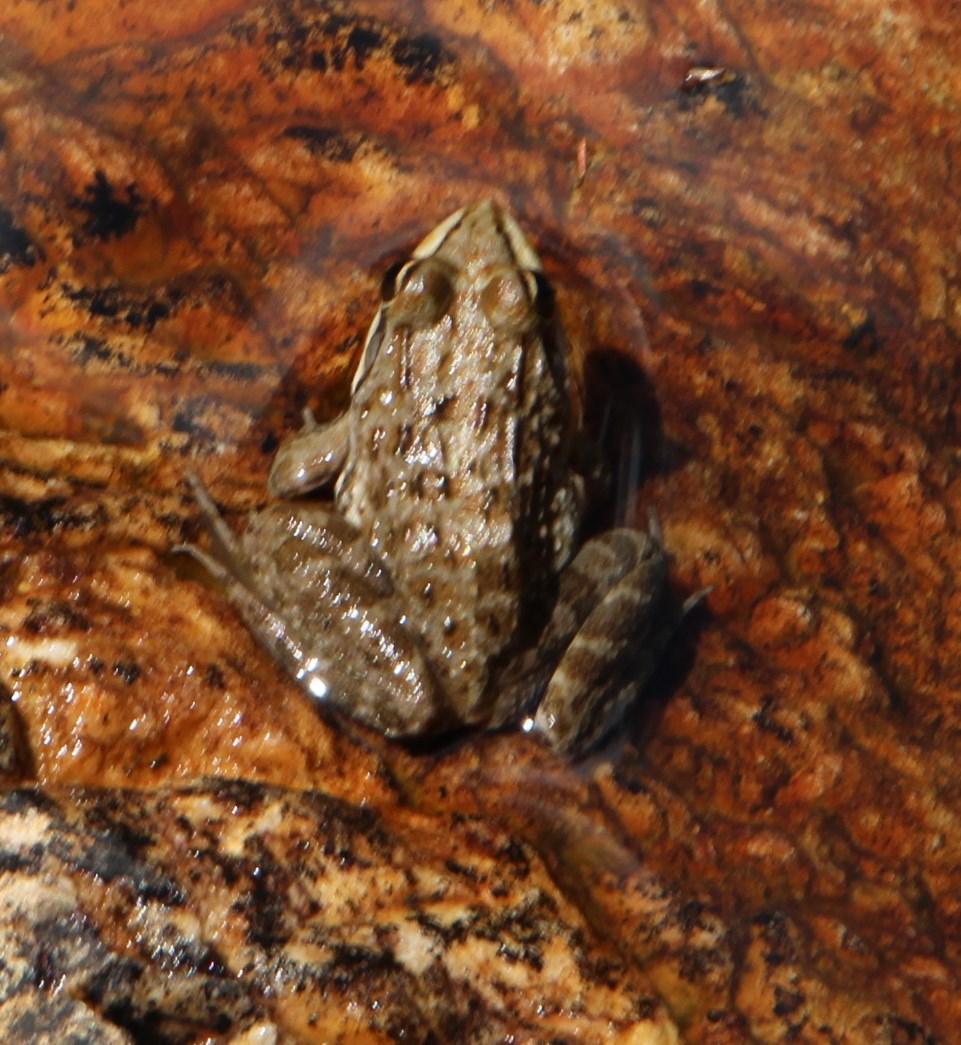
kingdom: Animalia
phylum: Chordata
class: Amphibia
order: Anura
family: Pyxicephalidae
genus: Amietia
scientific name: Amietia fuscigula
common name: Cape rana
